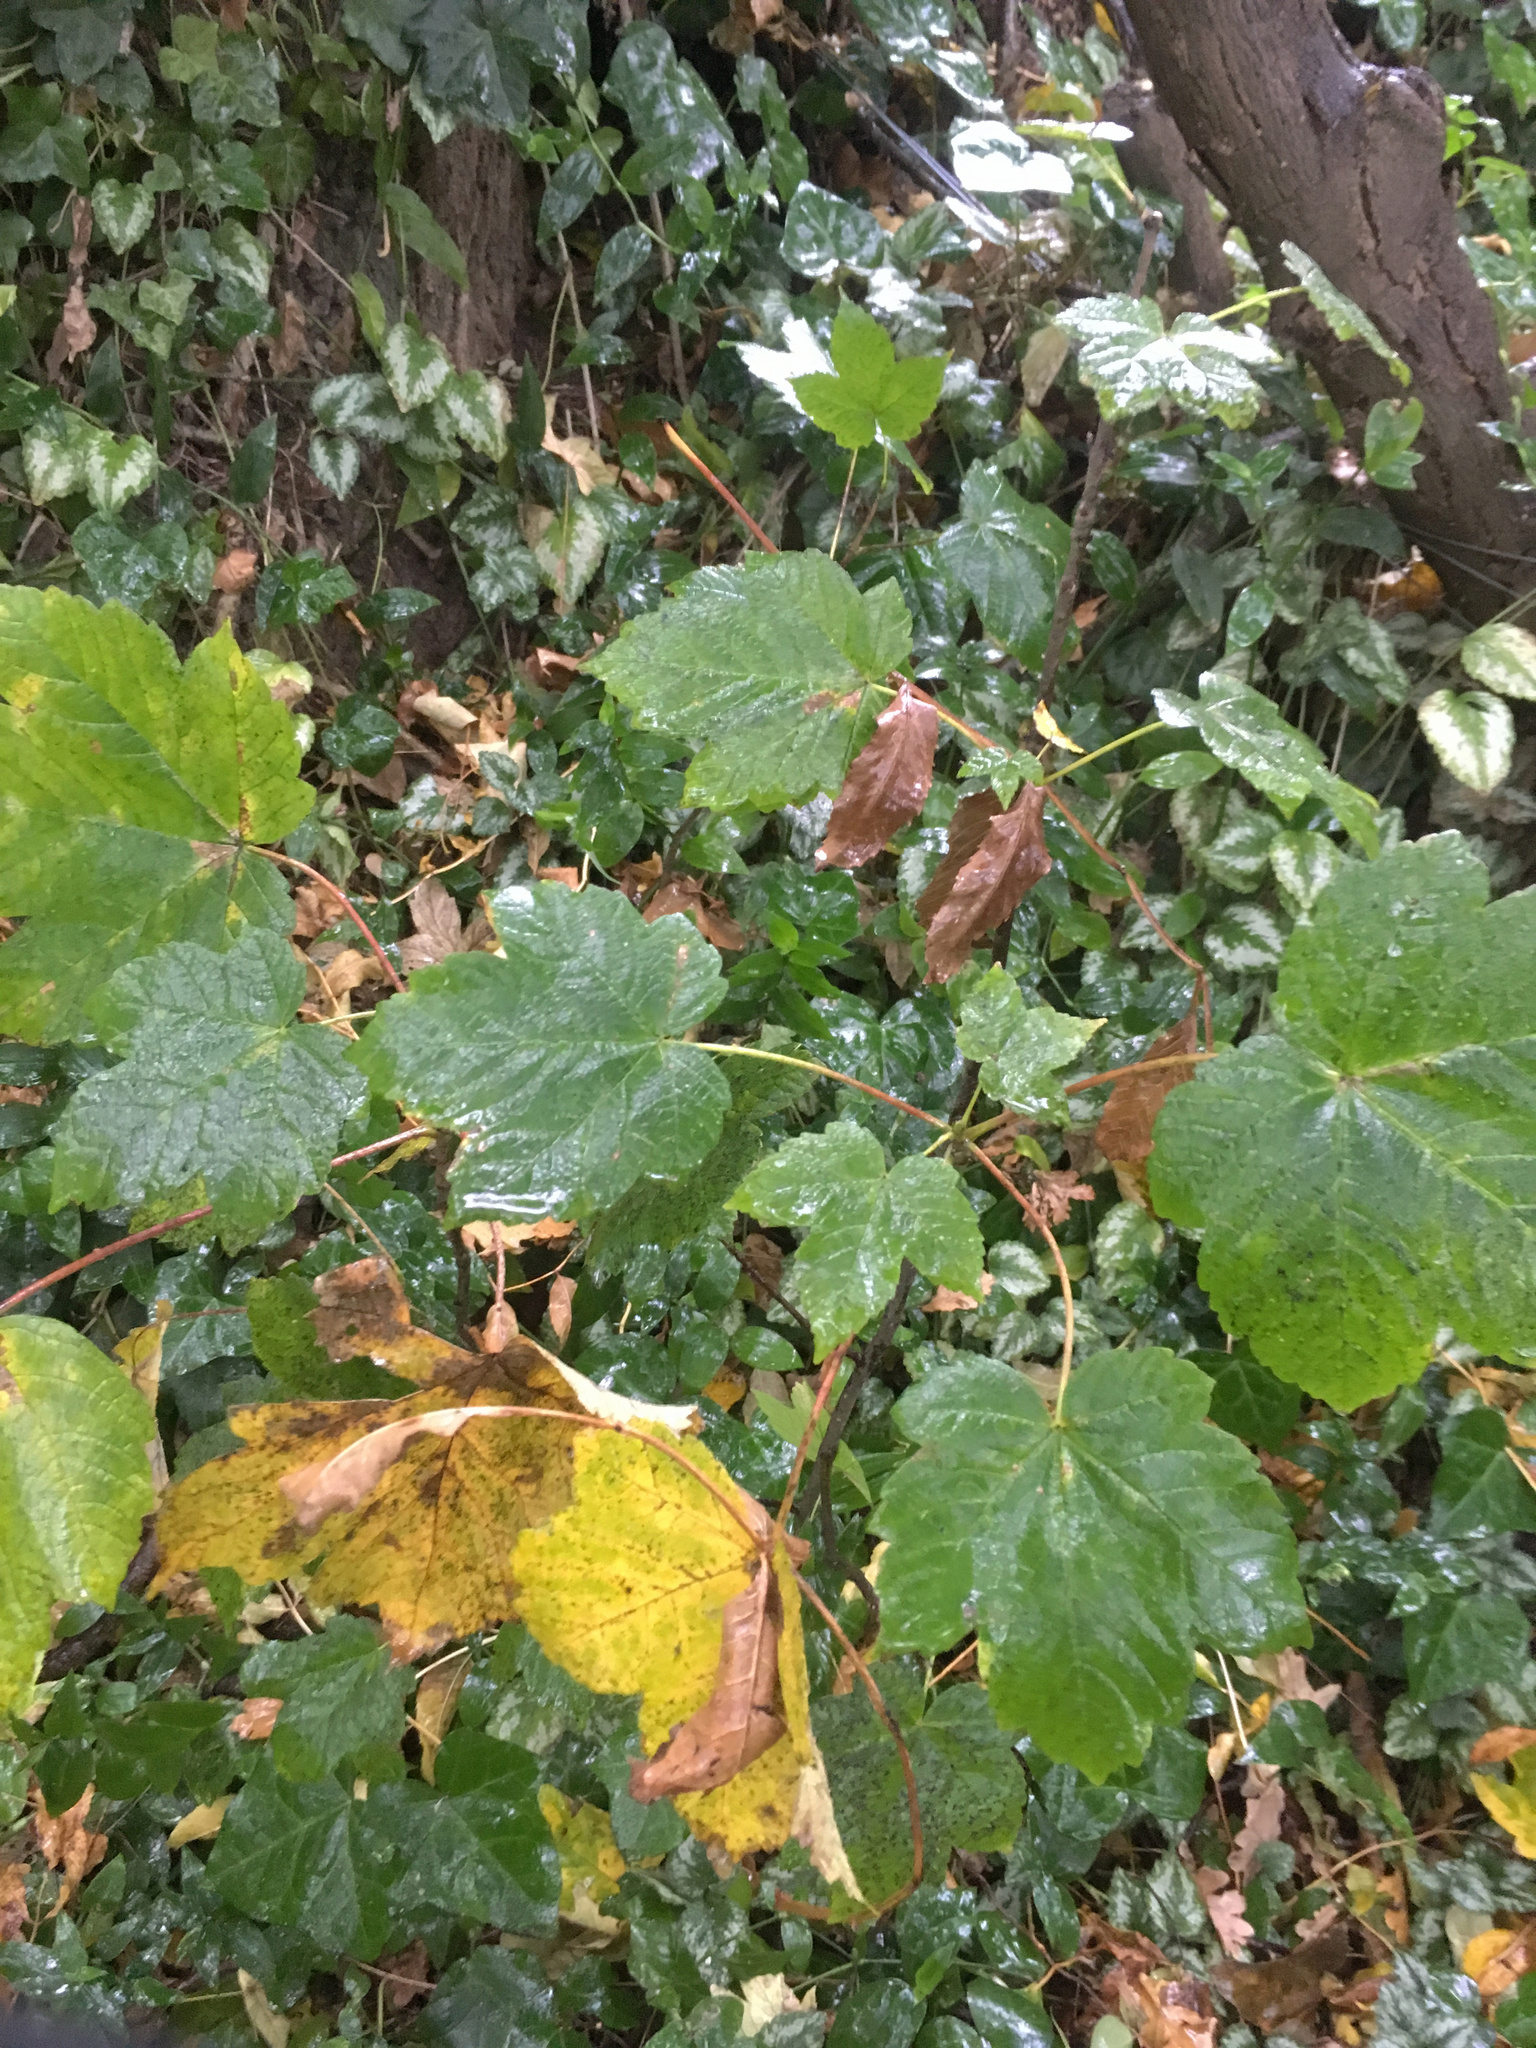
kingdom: Plantae
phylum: Tracheophyta
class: Magnoliopsida
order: Sapindales
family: Sapindaceae
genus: Acer
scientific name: Acer pseudoplatanus
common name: Sycamore
